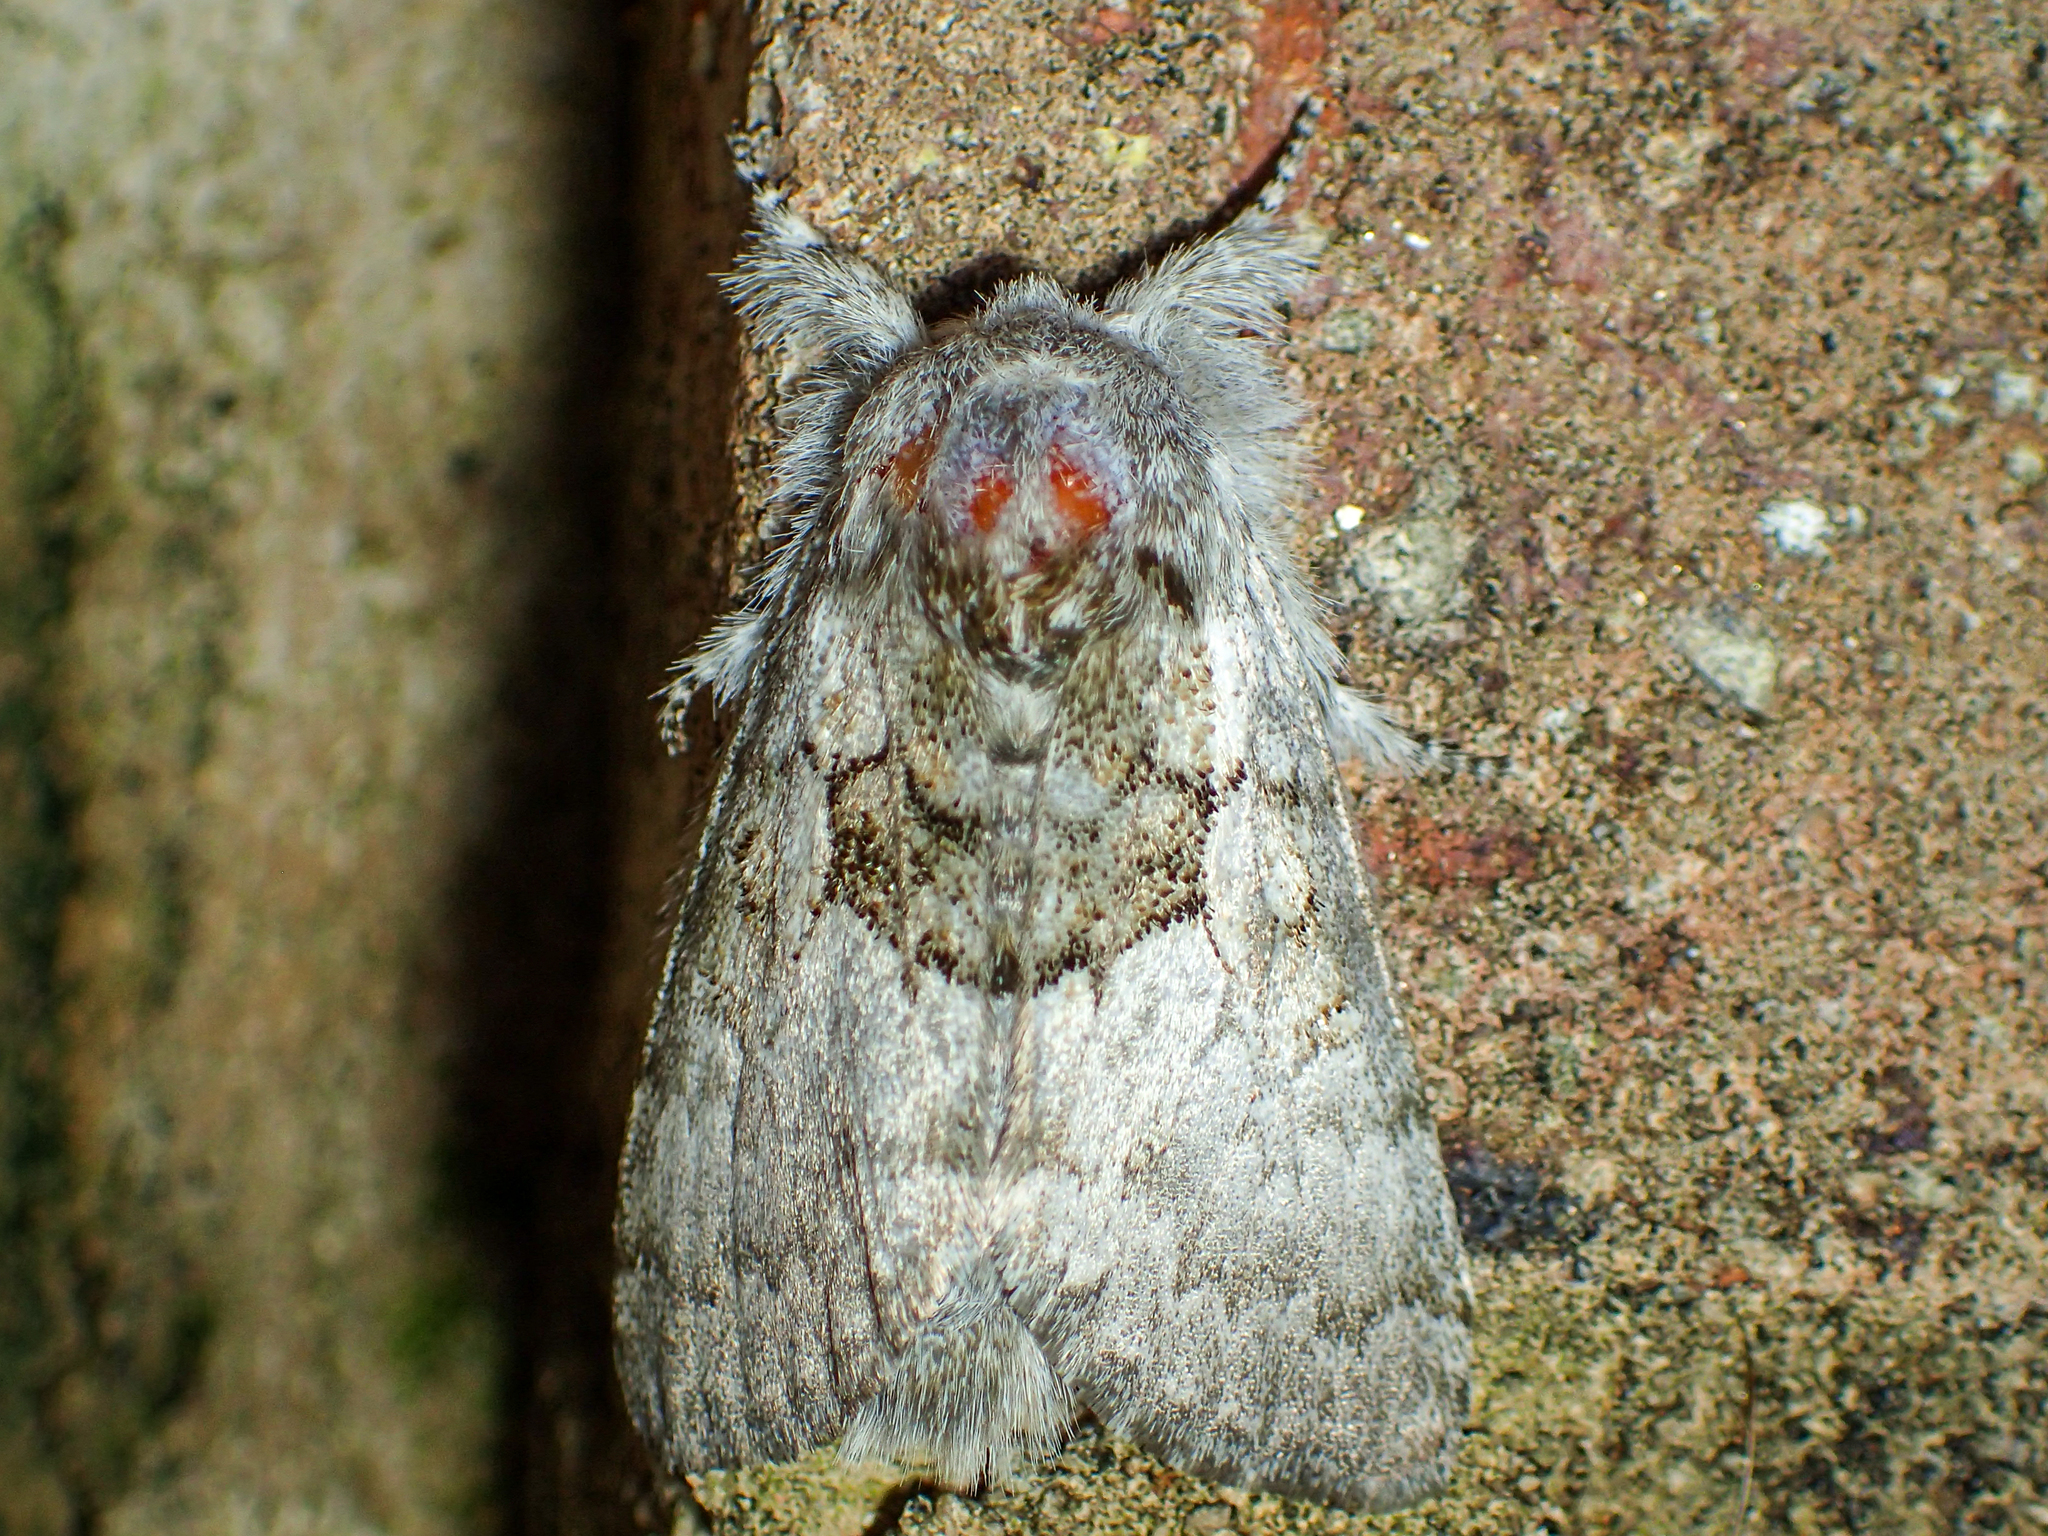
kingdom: Animalia
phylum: Arthropoda
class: Insecta
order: Lepidoptera
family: Noctuidae
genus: Colocasia
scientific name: Colocasia flavicornis
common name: Saddled yellowhorn
